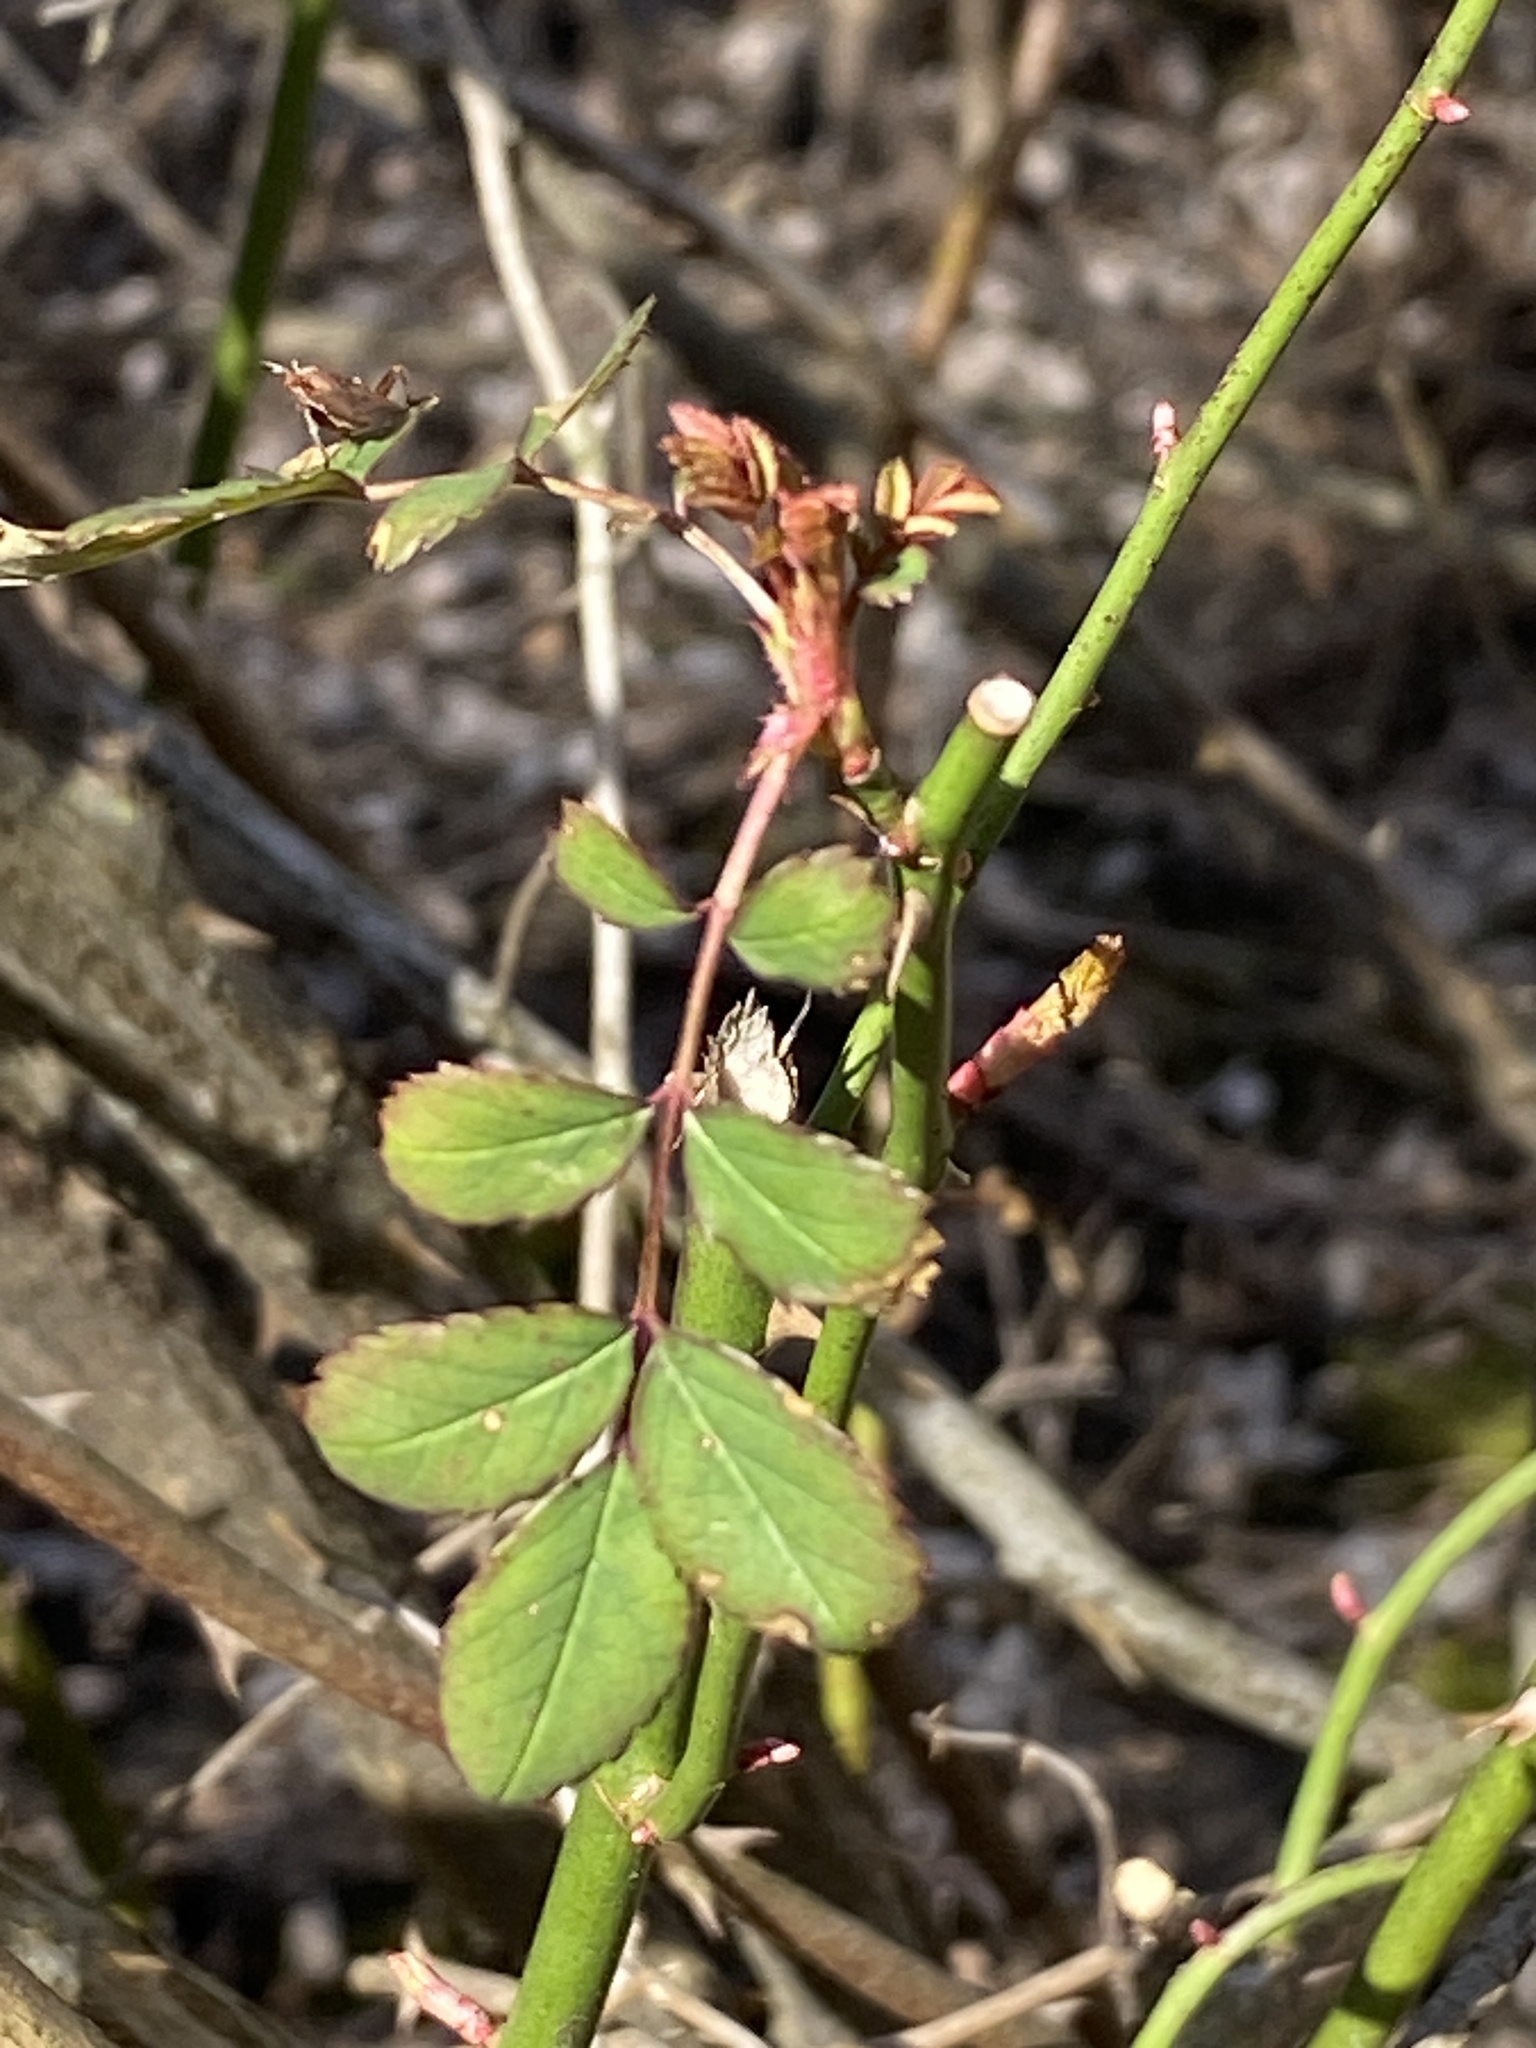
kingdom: Plantae
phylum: Tracheophyta
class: Magnoliopsida
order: Rosales
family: Rosaceae
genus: Rosa
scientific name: Rosa multiflora
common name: Multiflora rose
